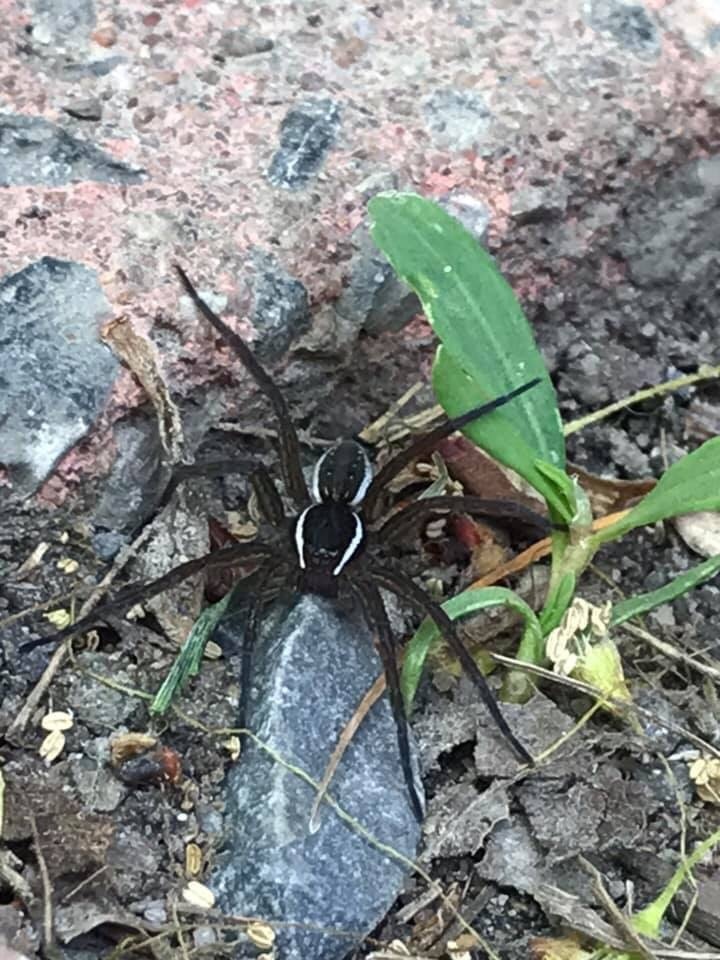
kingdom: Animalia
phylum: Arthropoda
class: Arachnida
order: Araneae
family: Pisauridae
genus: Dolomedes
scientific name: Dolomedes triton
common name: Six-spotted fishing spider
